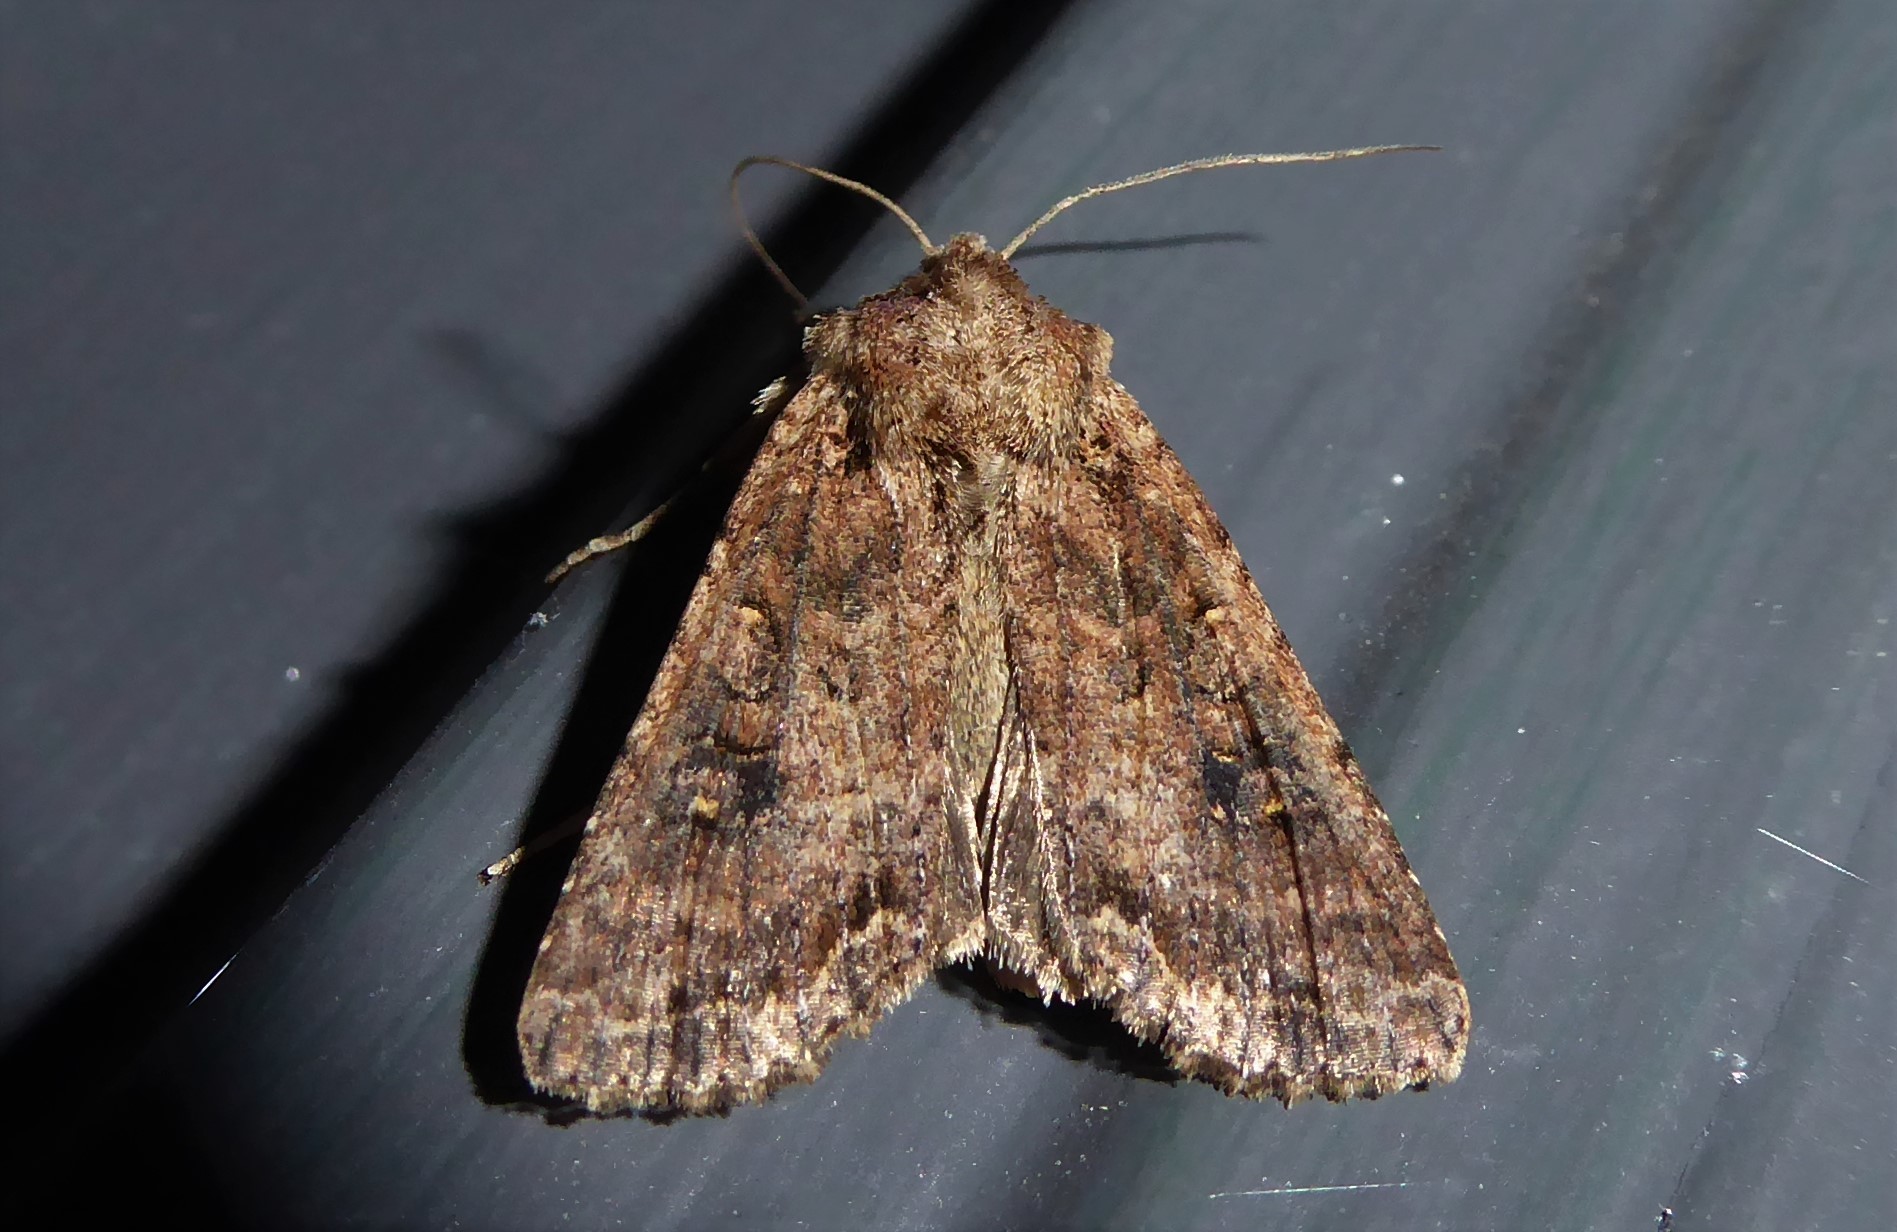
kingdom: Animalia
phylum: Arthropoda
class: Insecta
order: Lepidoptera
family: Noctuidae
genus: Ichneutica
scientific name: Ichneutica morosa
